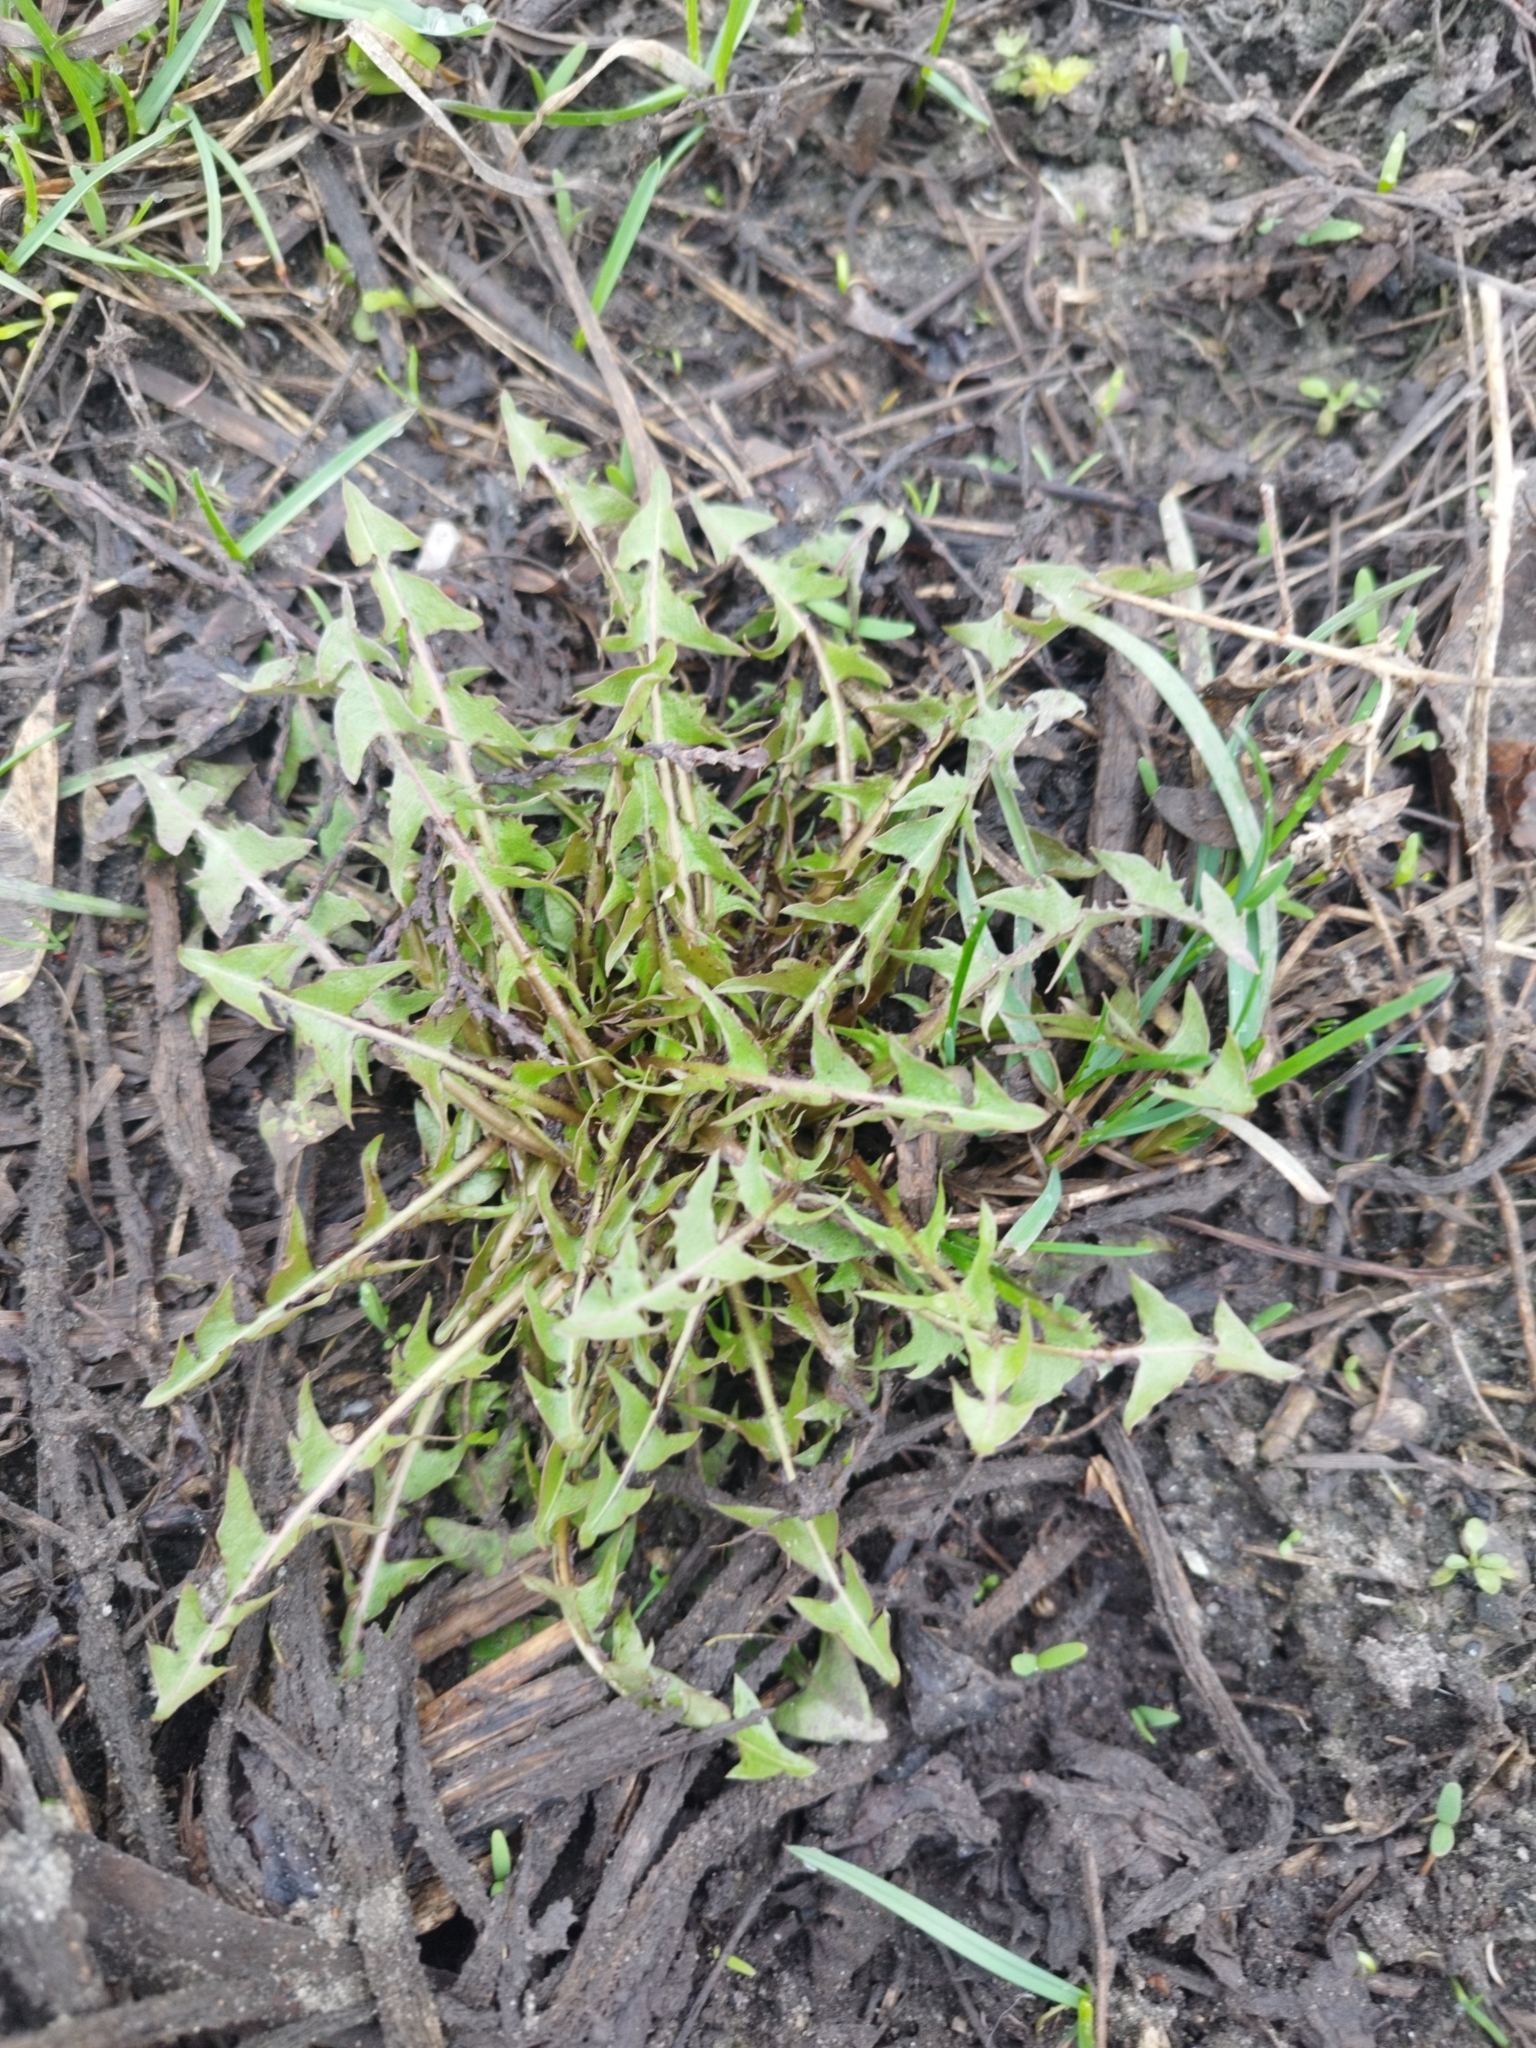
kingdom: Plantae
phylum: Tracheophyta
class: Magnoliopsida
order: Asterales
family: Asteraceae
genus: Taraxacum
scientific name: Taraxacum officinale
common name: Common dandelion
